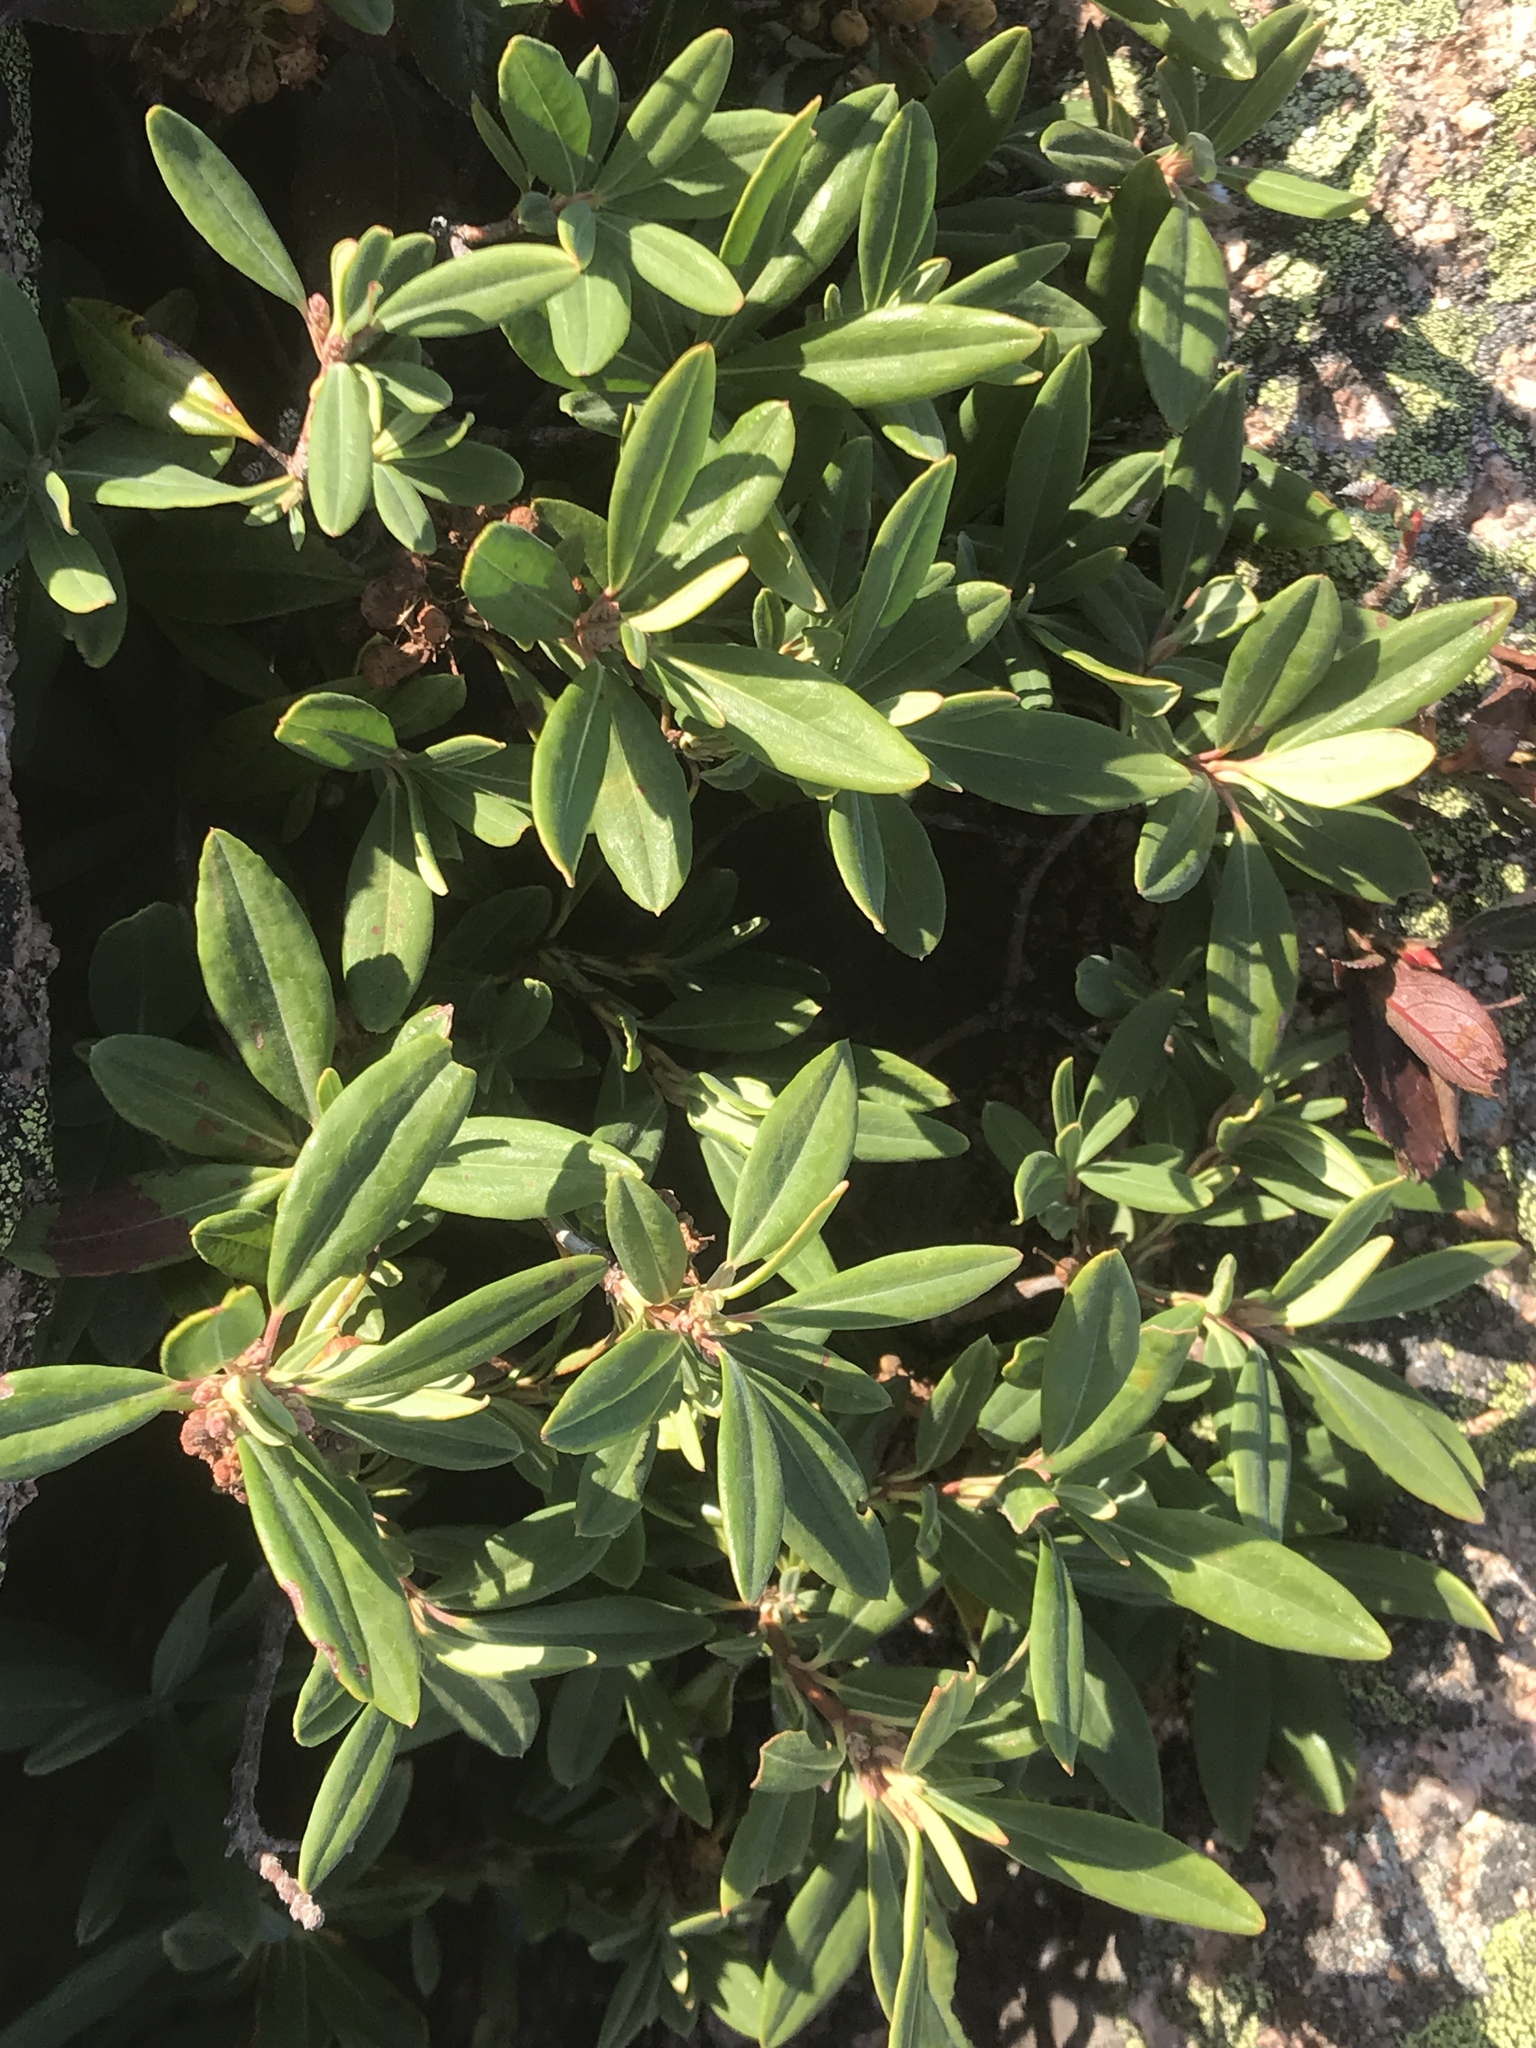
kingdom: Plantae
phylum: Tracheophyta
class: Magnoliopsida
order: Ericales
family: Ericaceae
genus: Kalmia
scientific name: Kalmia angustifolia
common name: Sheep-laurel
